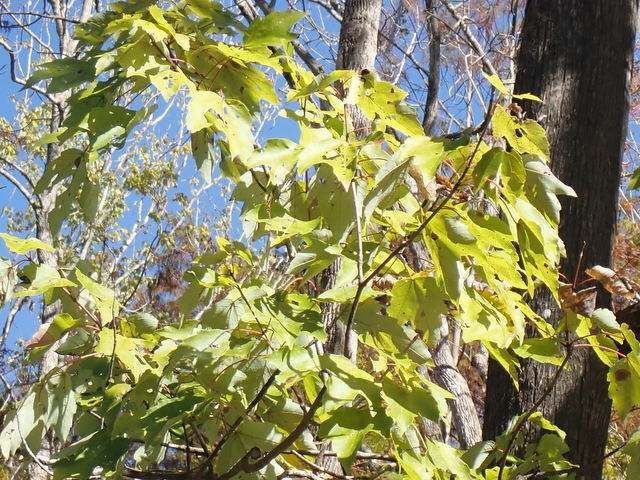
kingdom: Plantae
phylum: Tracheophyta
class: Magnoliopsida
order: Sapindales
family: Sapindaceae
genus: Acer
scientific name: Acer rubrum
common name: Red maple
